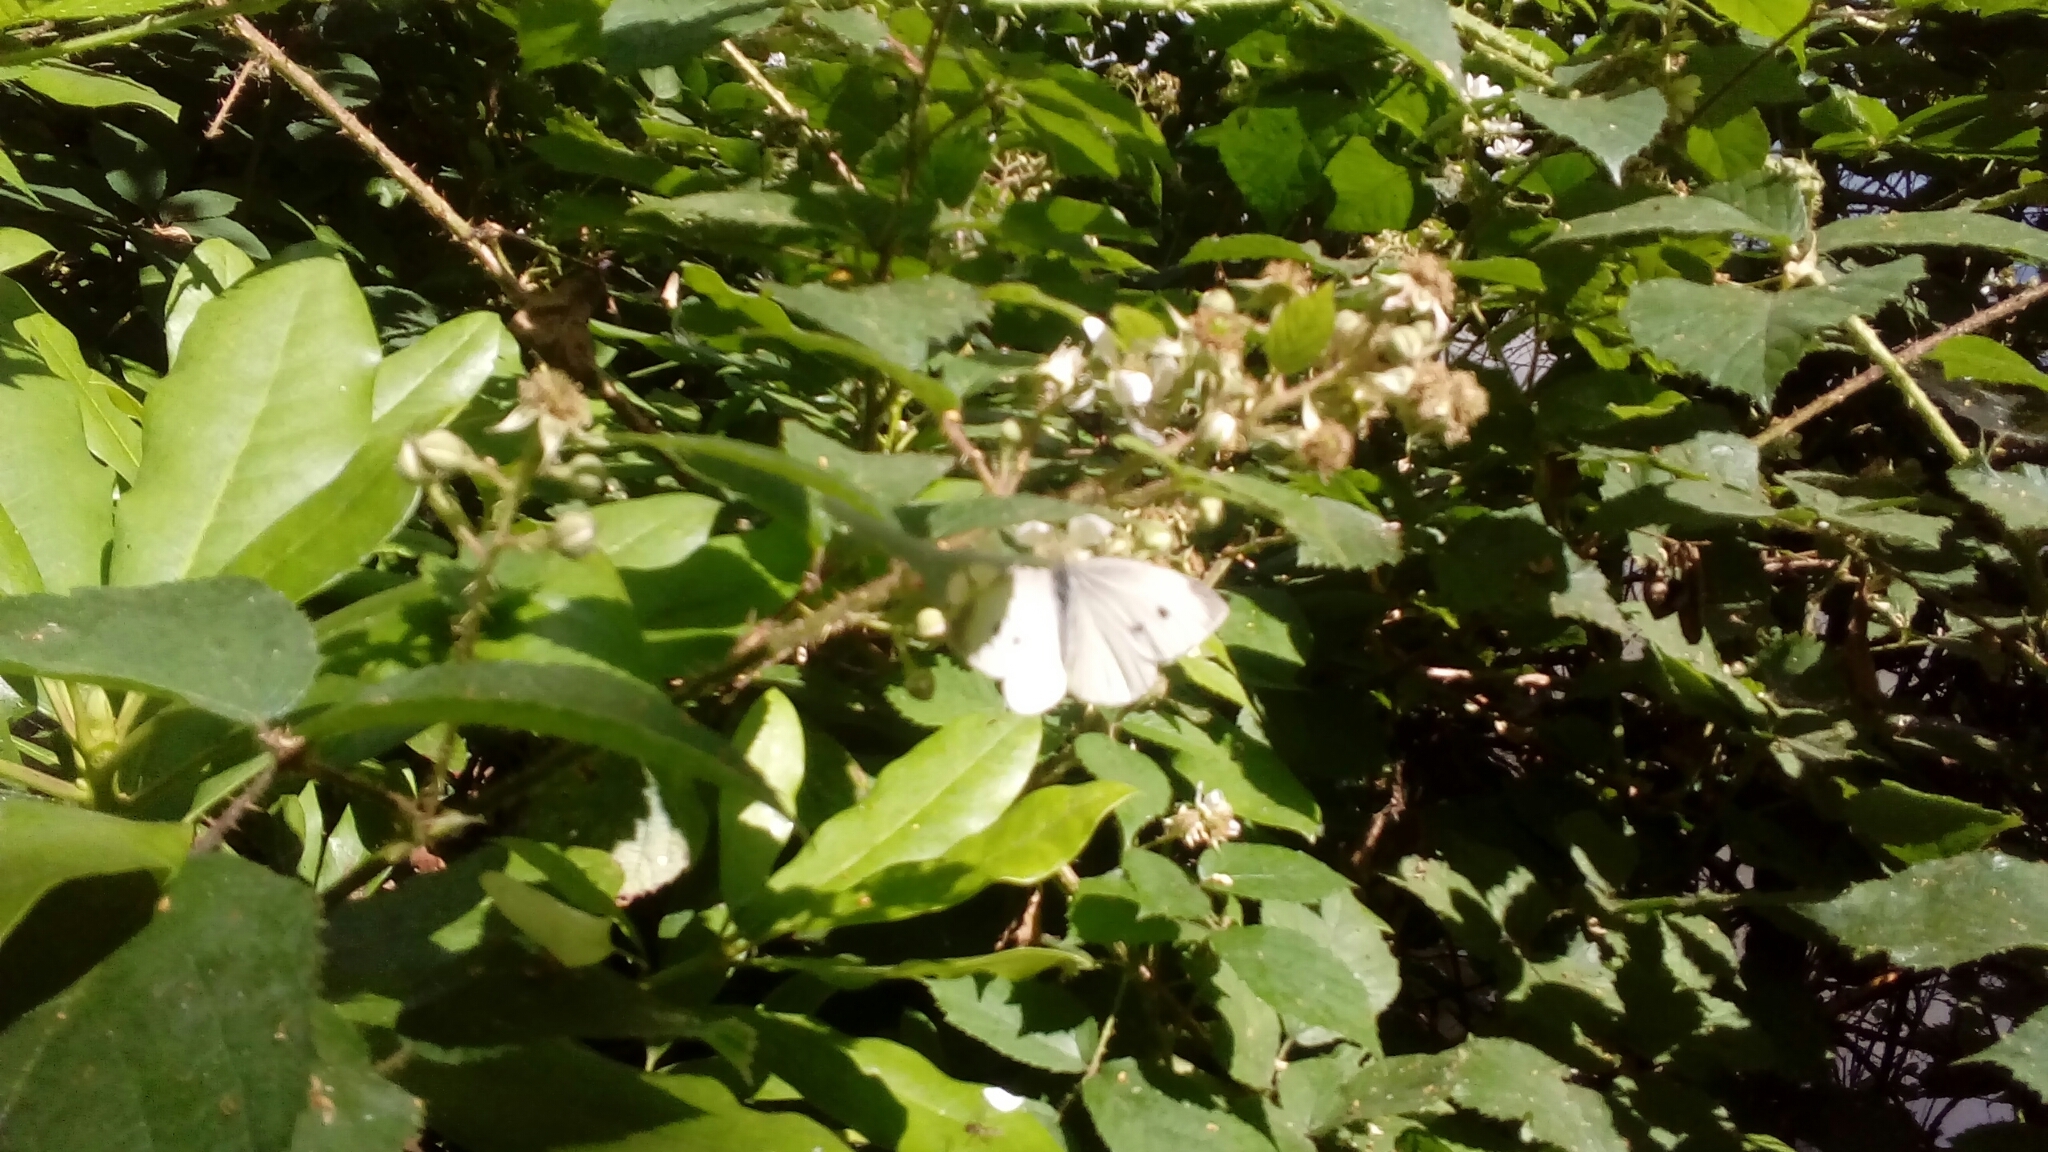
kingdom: Animalia
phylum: Arthropoda
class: Insecta
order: Lepidoptera
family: Pieridae
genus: Pieris
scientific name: Pieris rapae
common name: Small white
